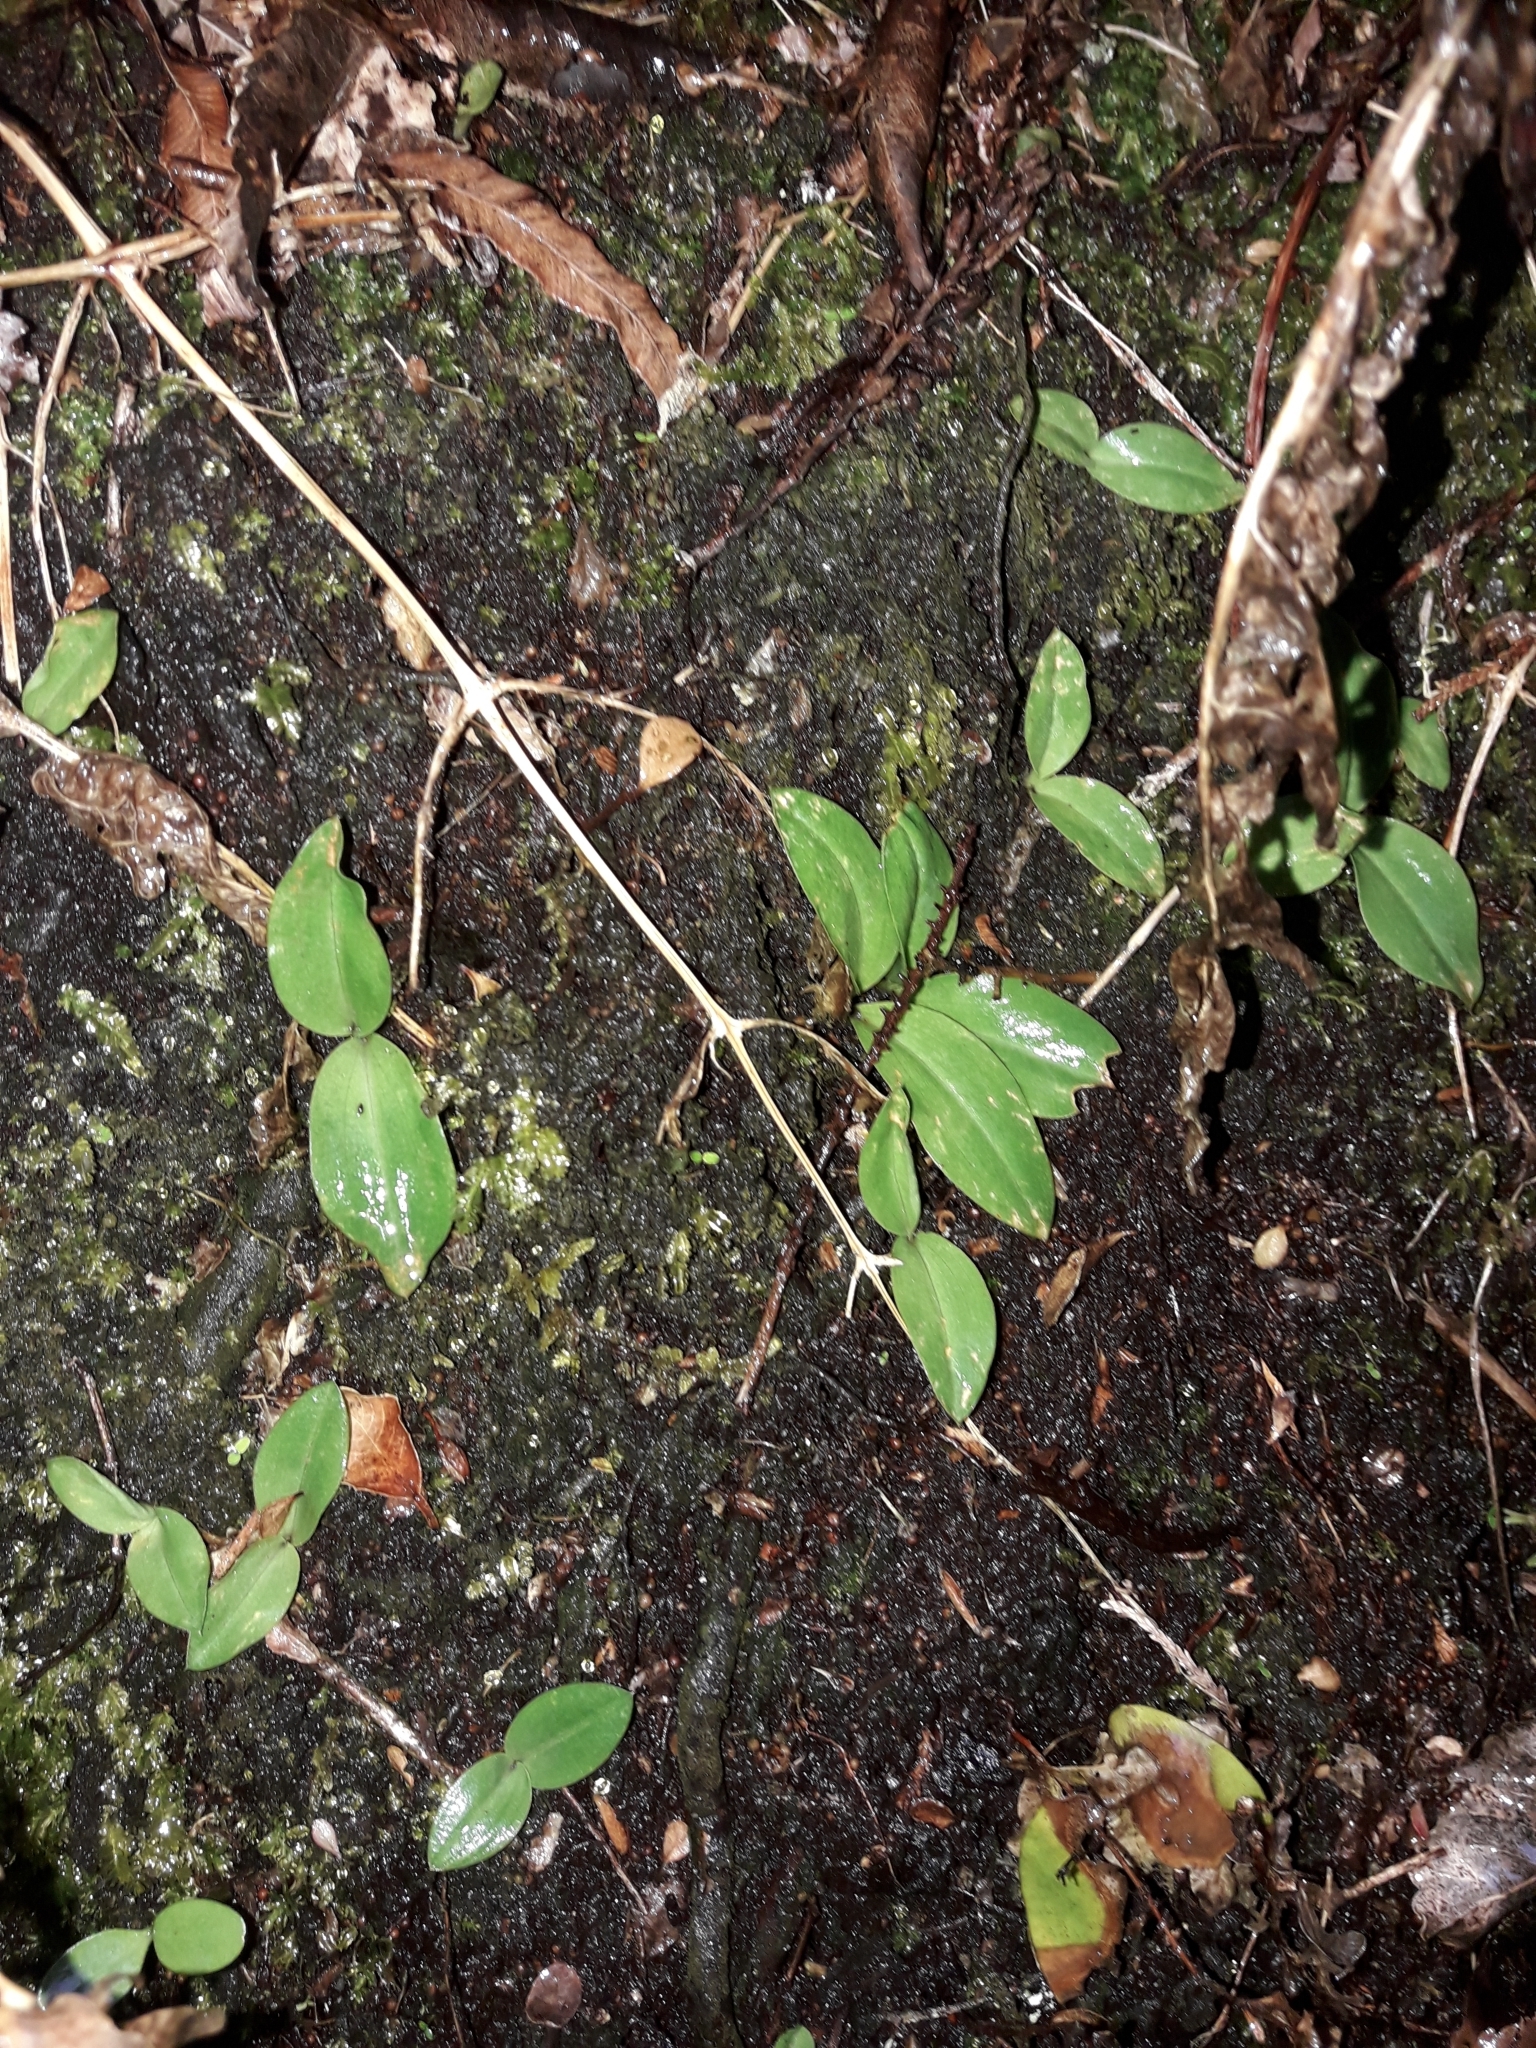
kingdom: Plantae
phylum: Tracheophyta
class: Liliopsida
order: Asparagales
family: Orchidaceae
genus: Chiloglottis
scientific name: Chiloglottis cornuta
